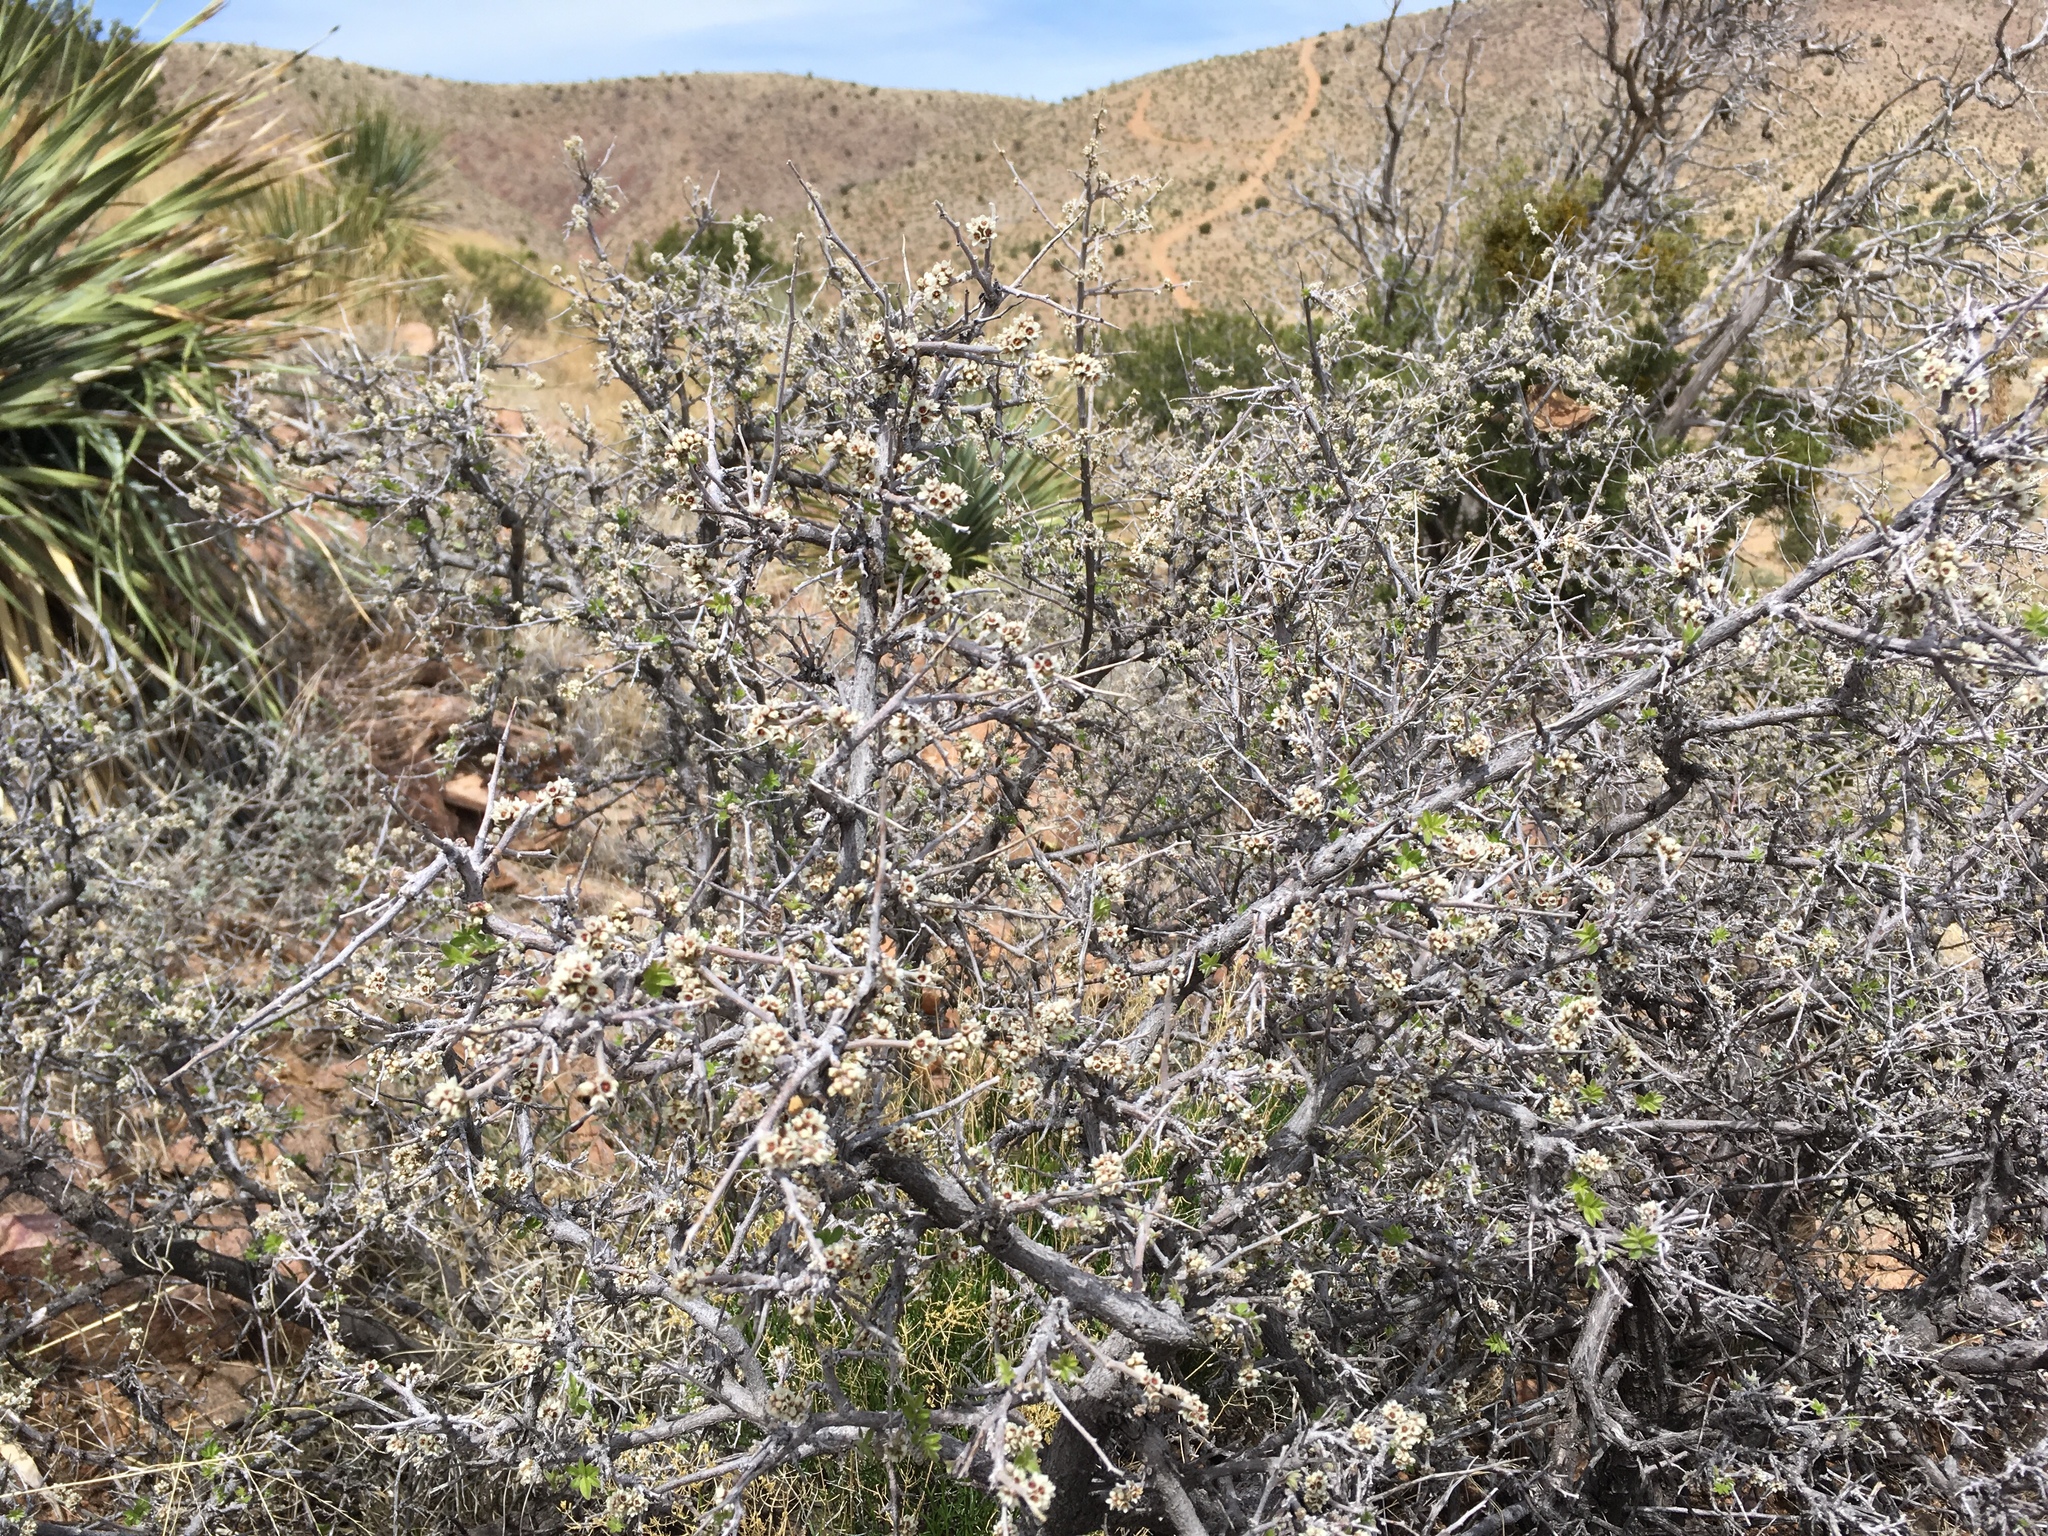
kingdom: Plantae
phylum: Tracheophyta
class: Magnoliopsida
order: Sapindales
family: Anacardiaceae
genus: Rhus
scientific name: Rhus microphylla
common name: Desert sumac
